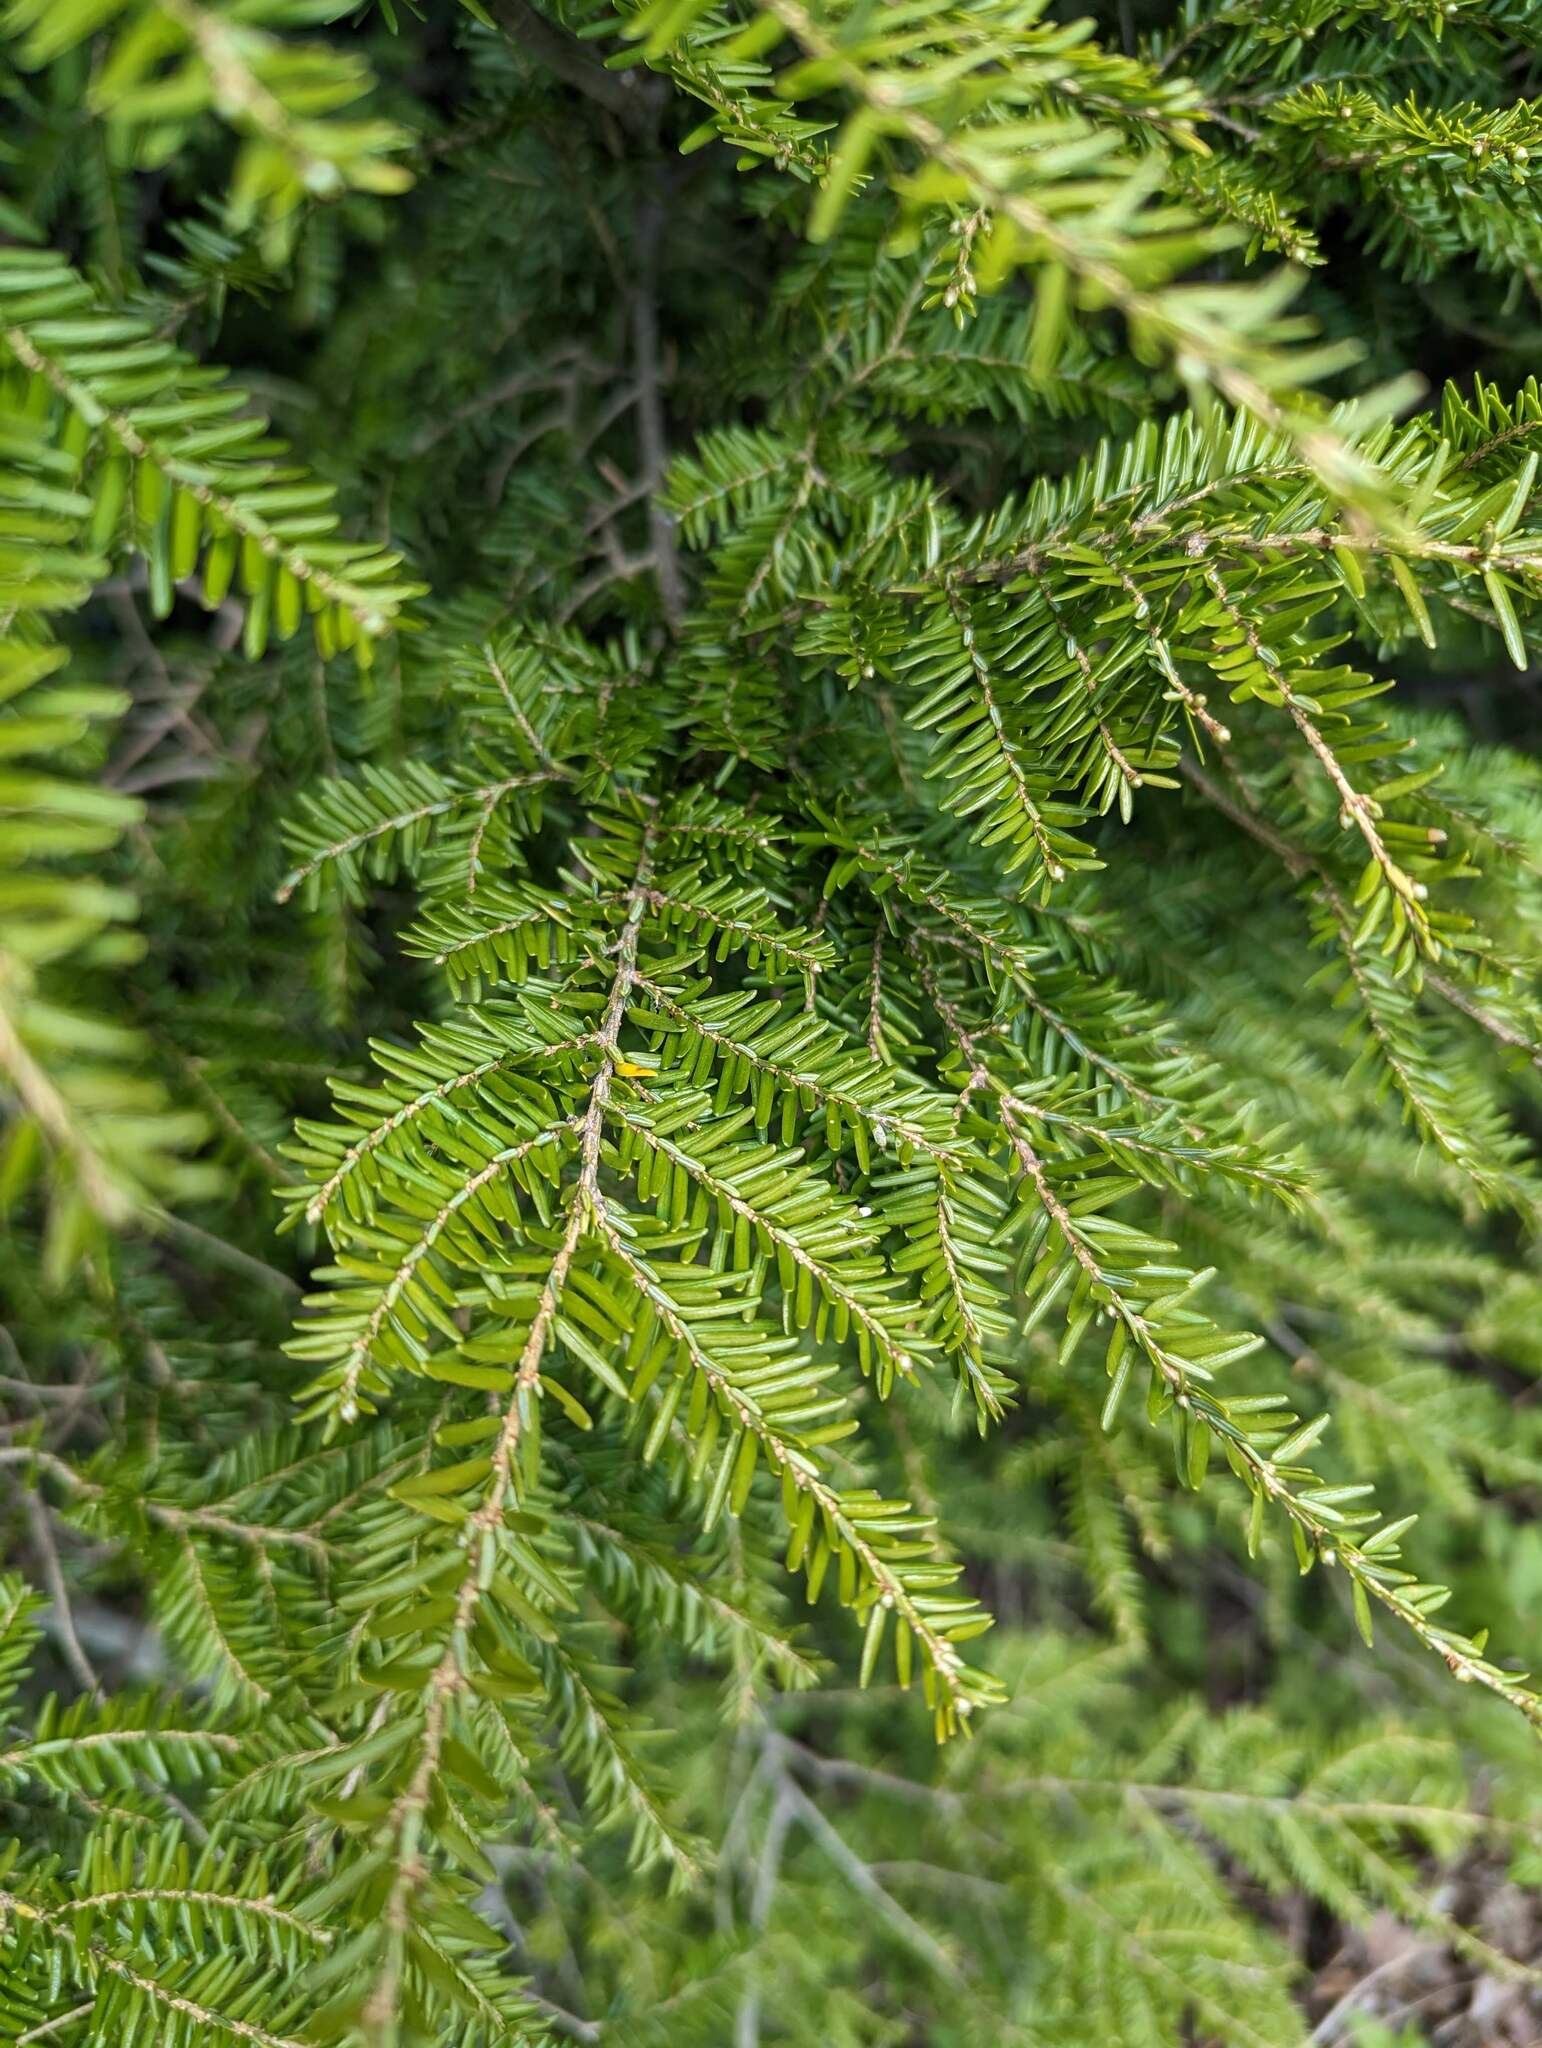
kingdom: Plantae
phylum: Tracheophyta
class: Pinopsida
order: Pinales
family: Pinaceae
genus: Tsuga
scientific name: Tsuga canadensis
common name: Eastern hemlock
